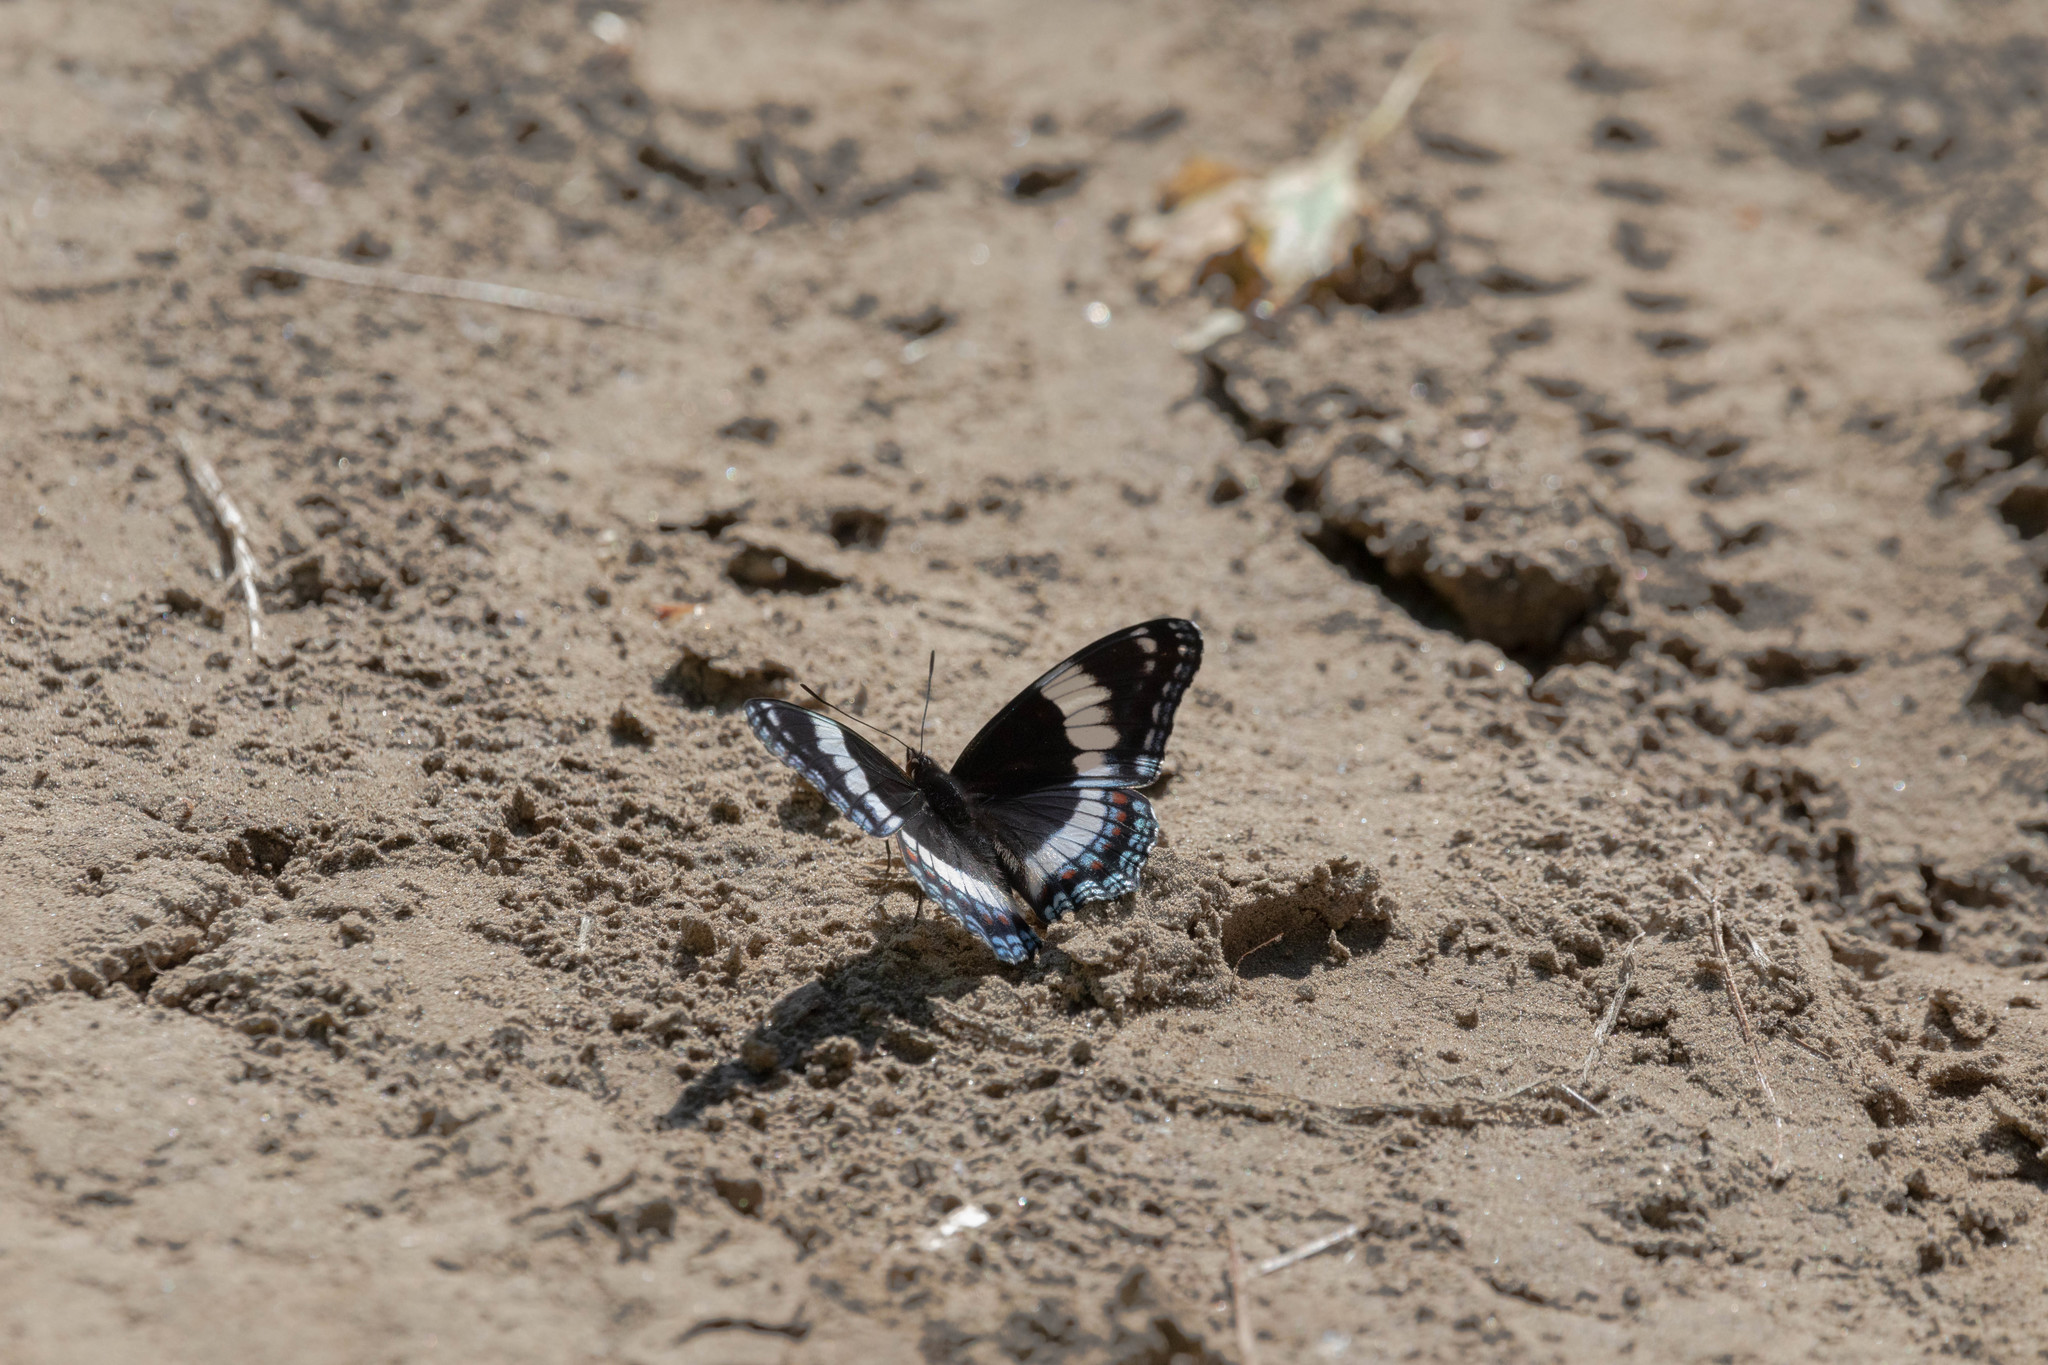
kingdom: Animalia
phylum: Arthropoda
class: Insecta
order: Lepidoptera
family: Nymphalidae
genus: Limenitis
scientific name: Limenitis arthemis
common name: Red-spotted admiral
